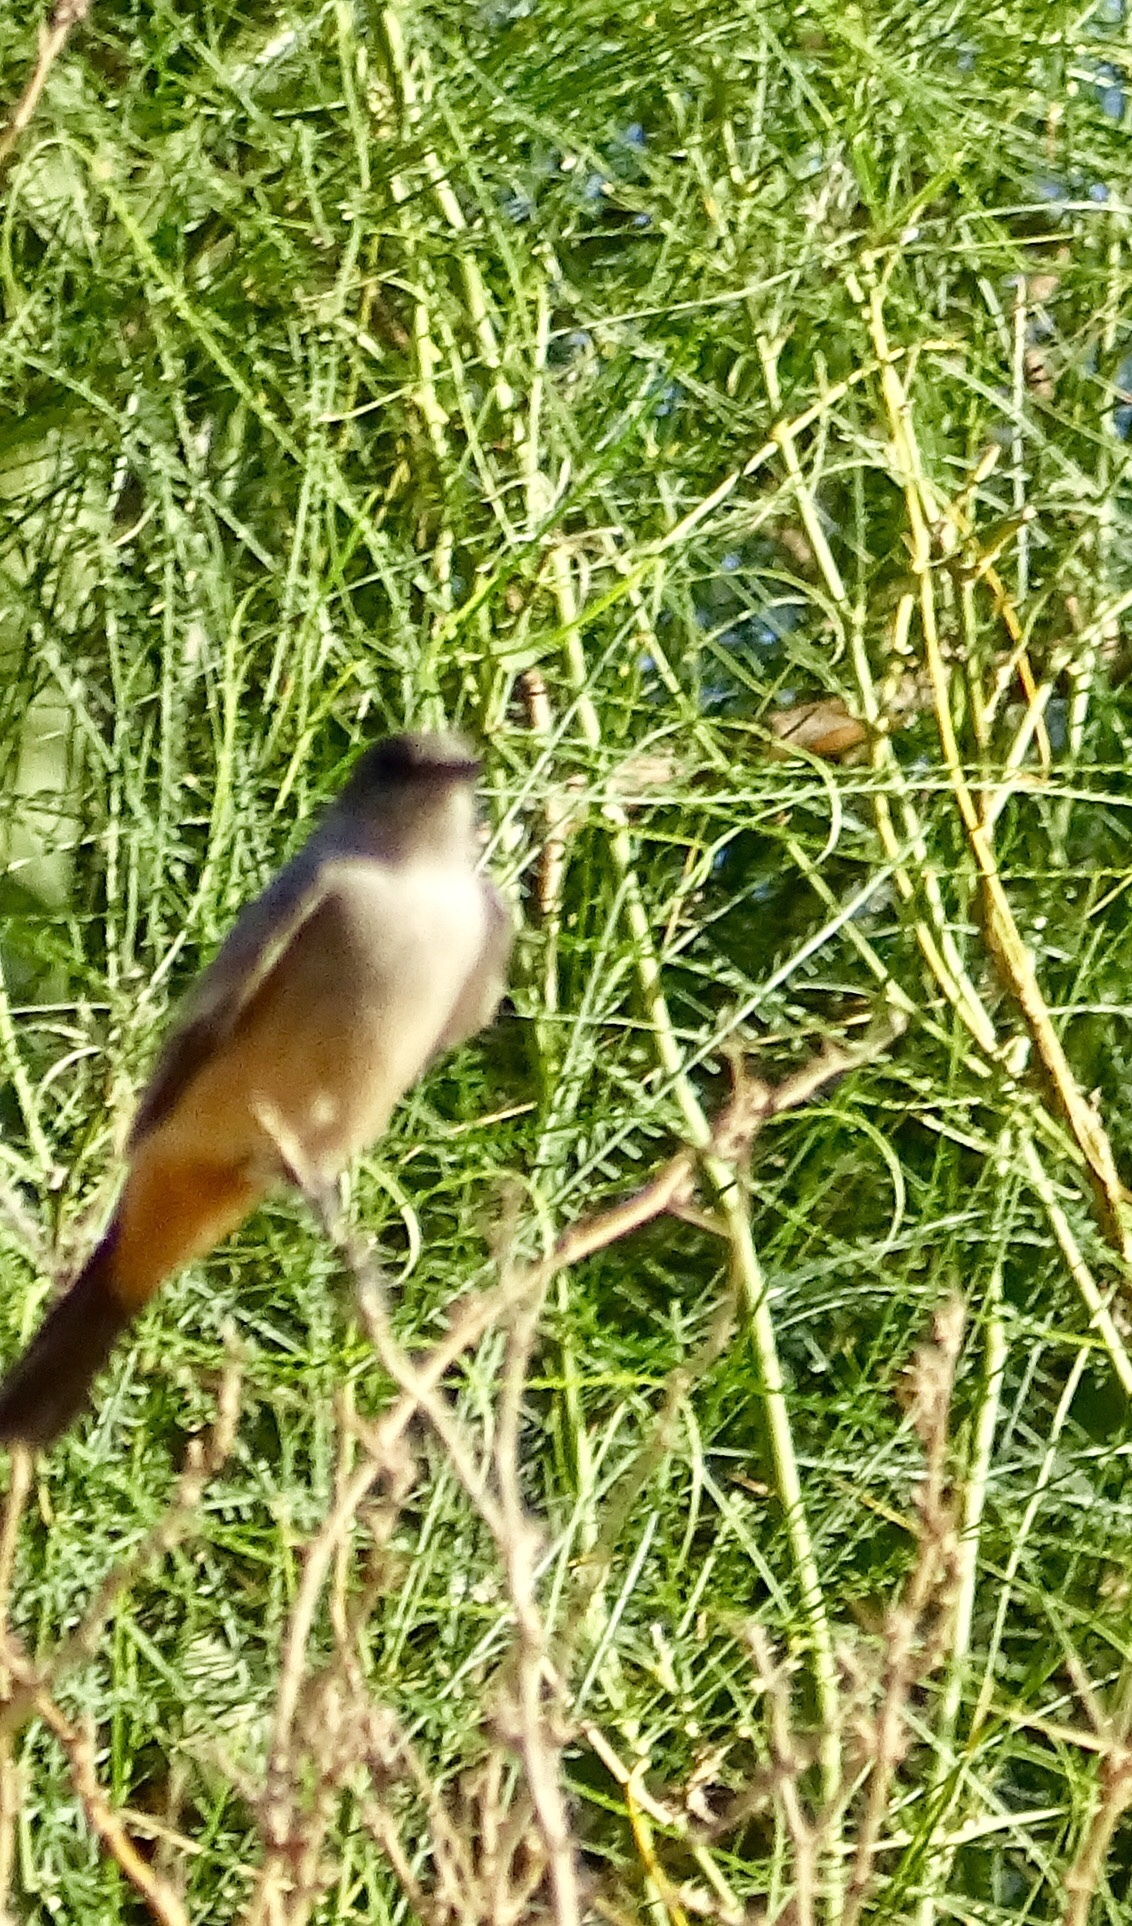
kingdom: Animalia
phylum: Chordata
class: Aves
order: Passeriformes
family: Tyrannidae
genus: Sayornis
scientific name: Sayornis saya
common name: Say's phoebe
